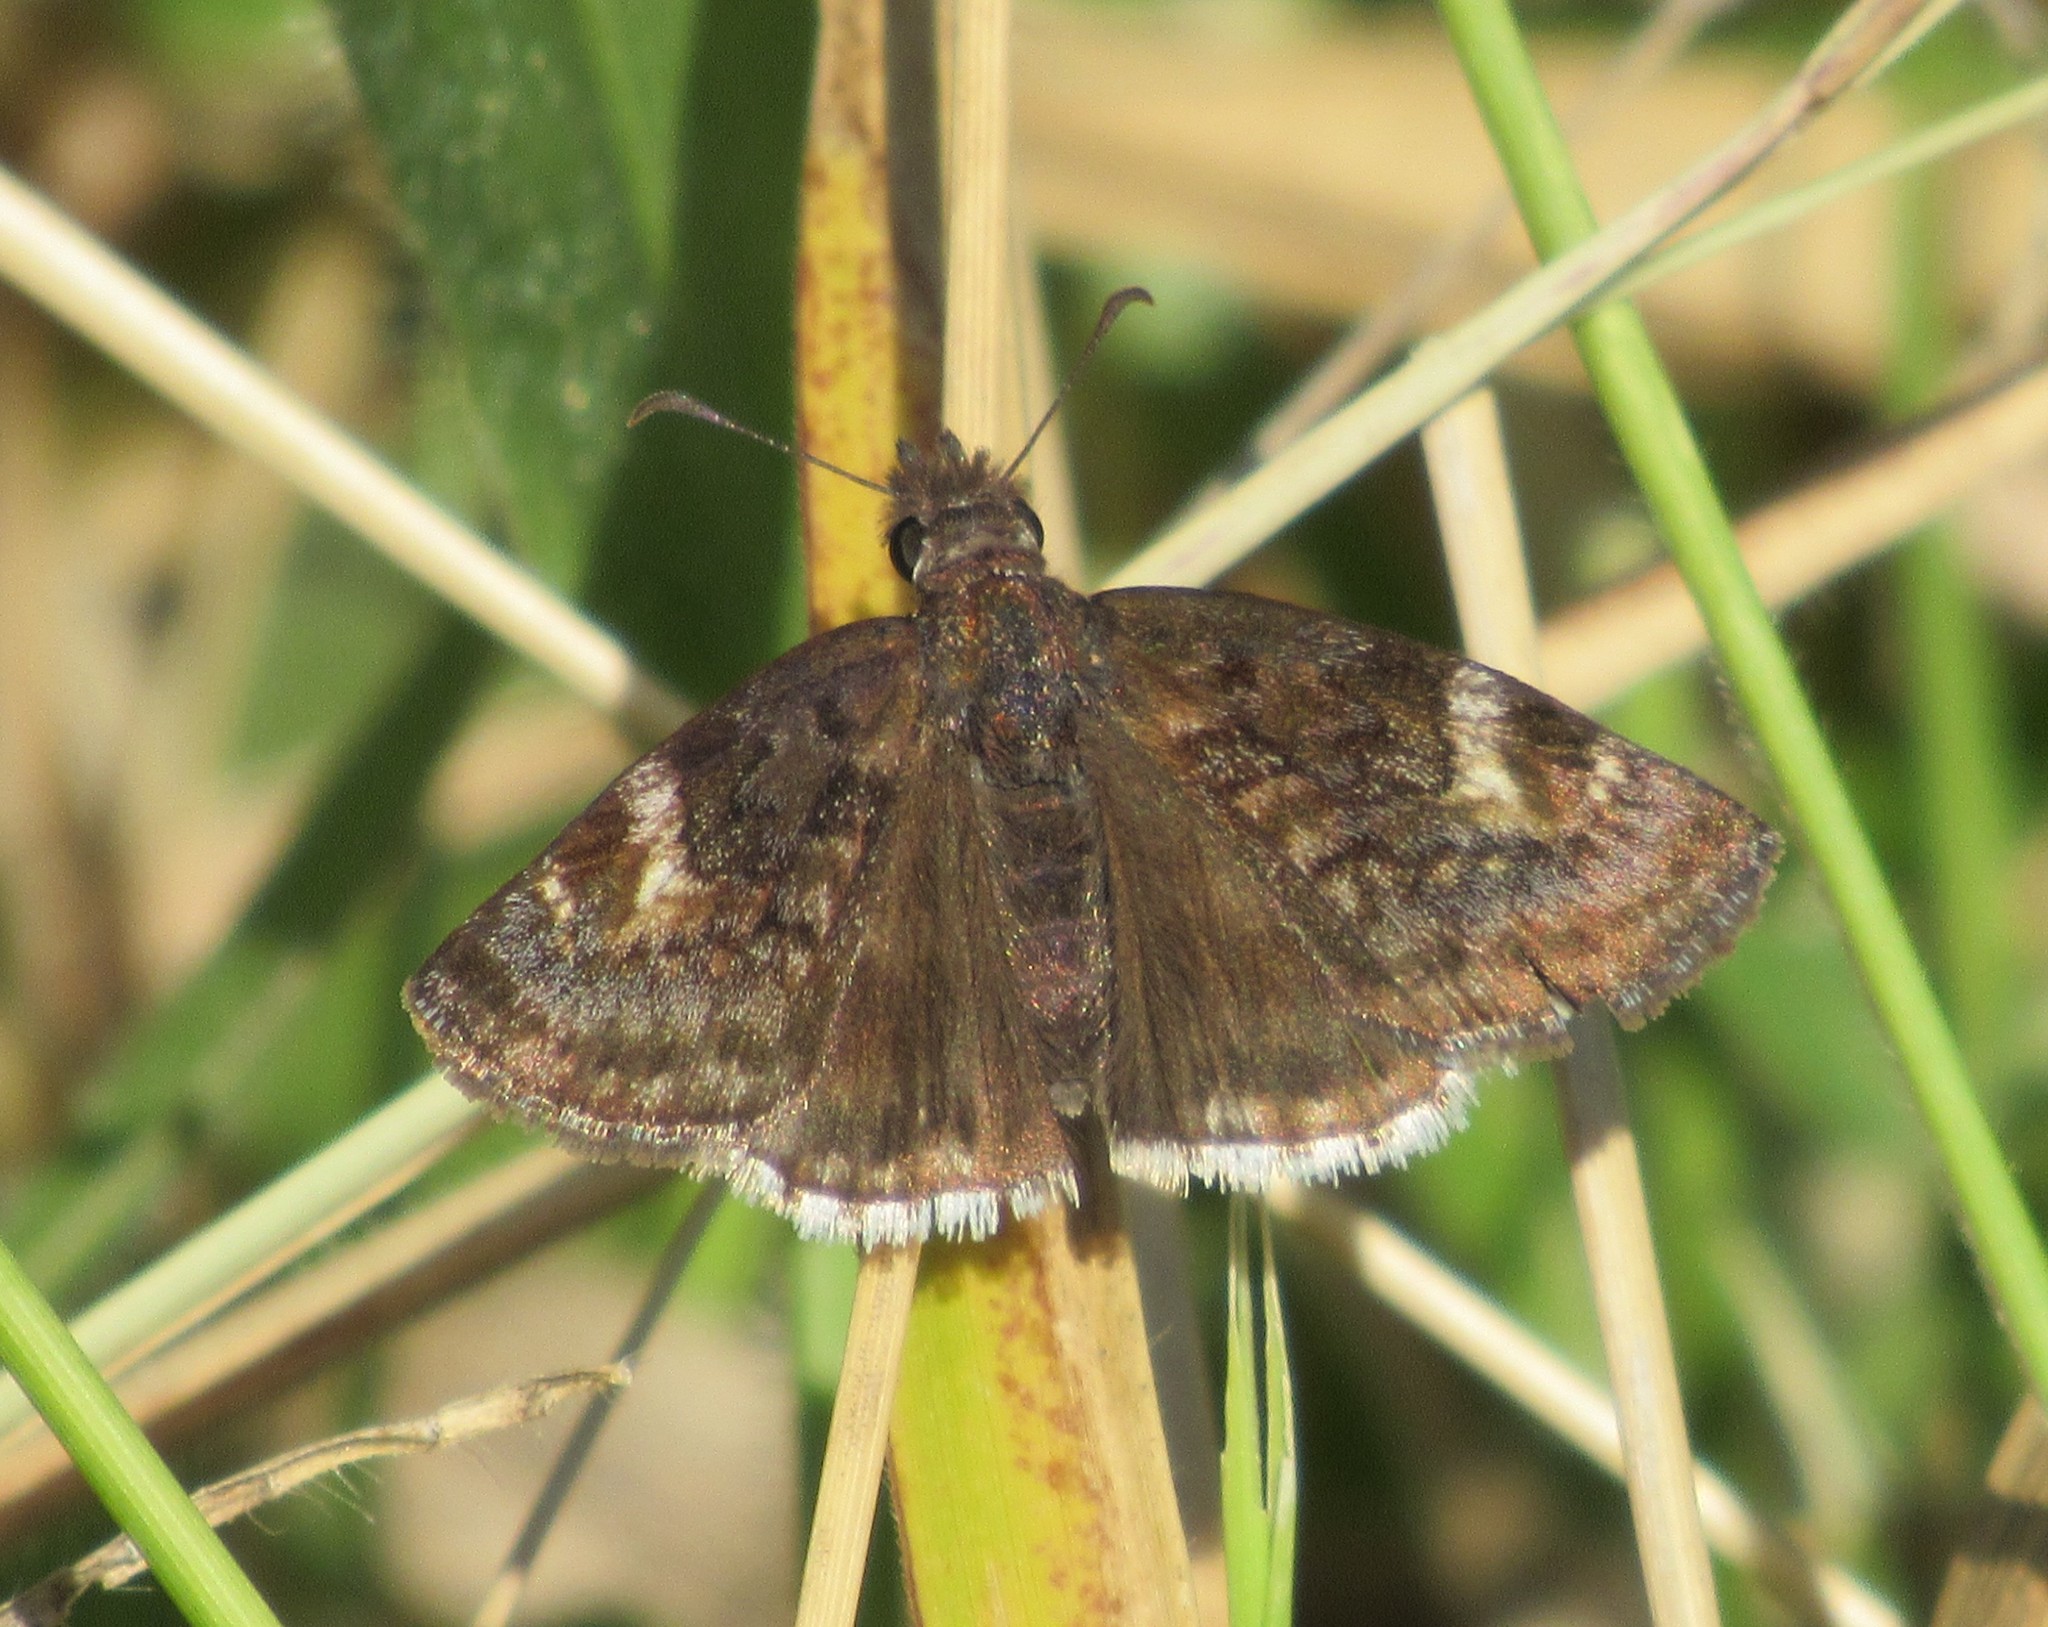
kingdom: Animalia
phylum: Arthropoda
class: Insecta
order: Lepidoptera
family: Hesperiidae
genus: Gesta
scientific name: Gesta gesta
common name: Gesta duskywing
